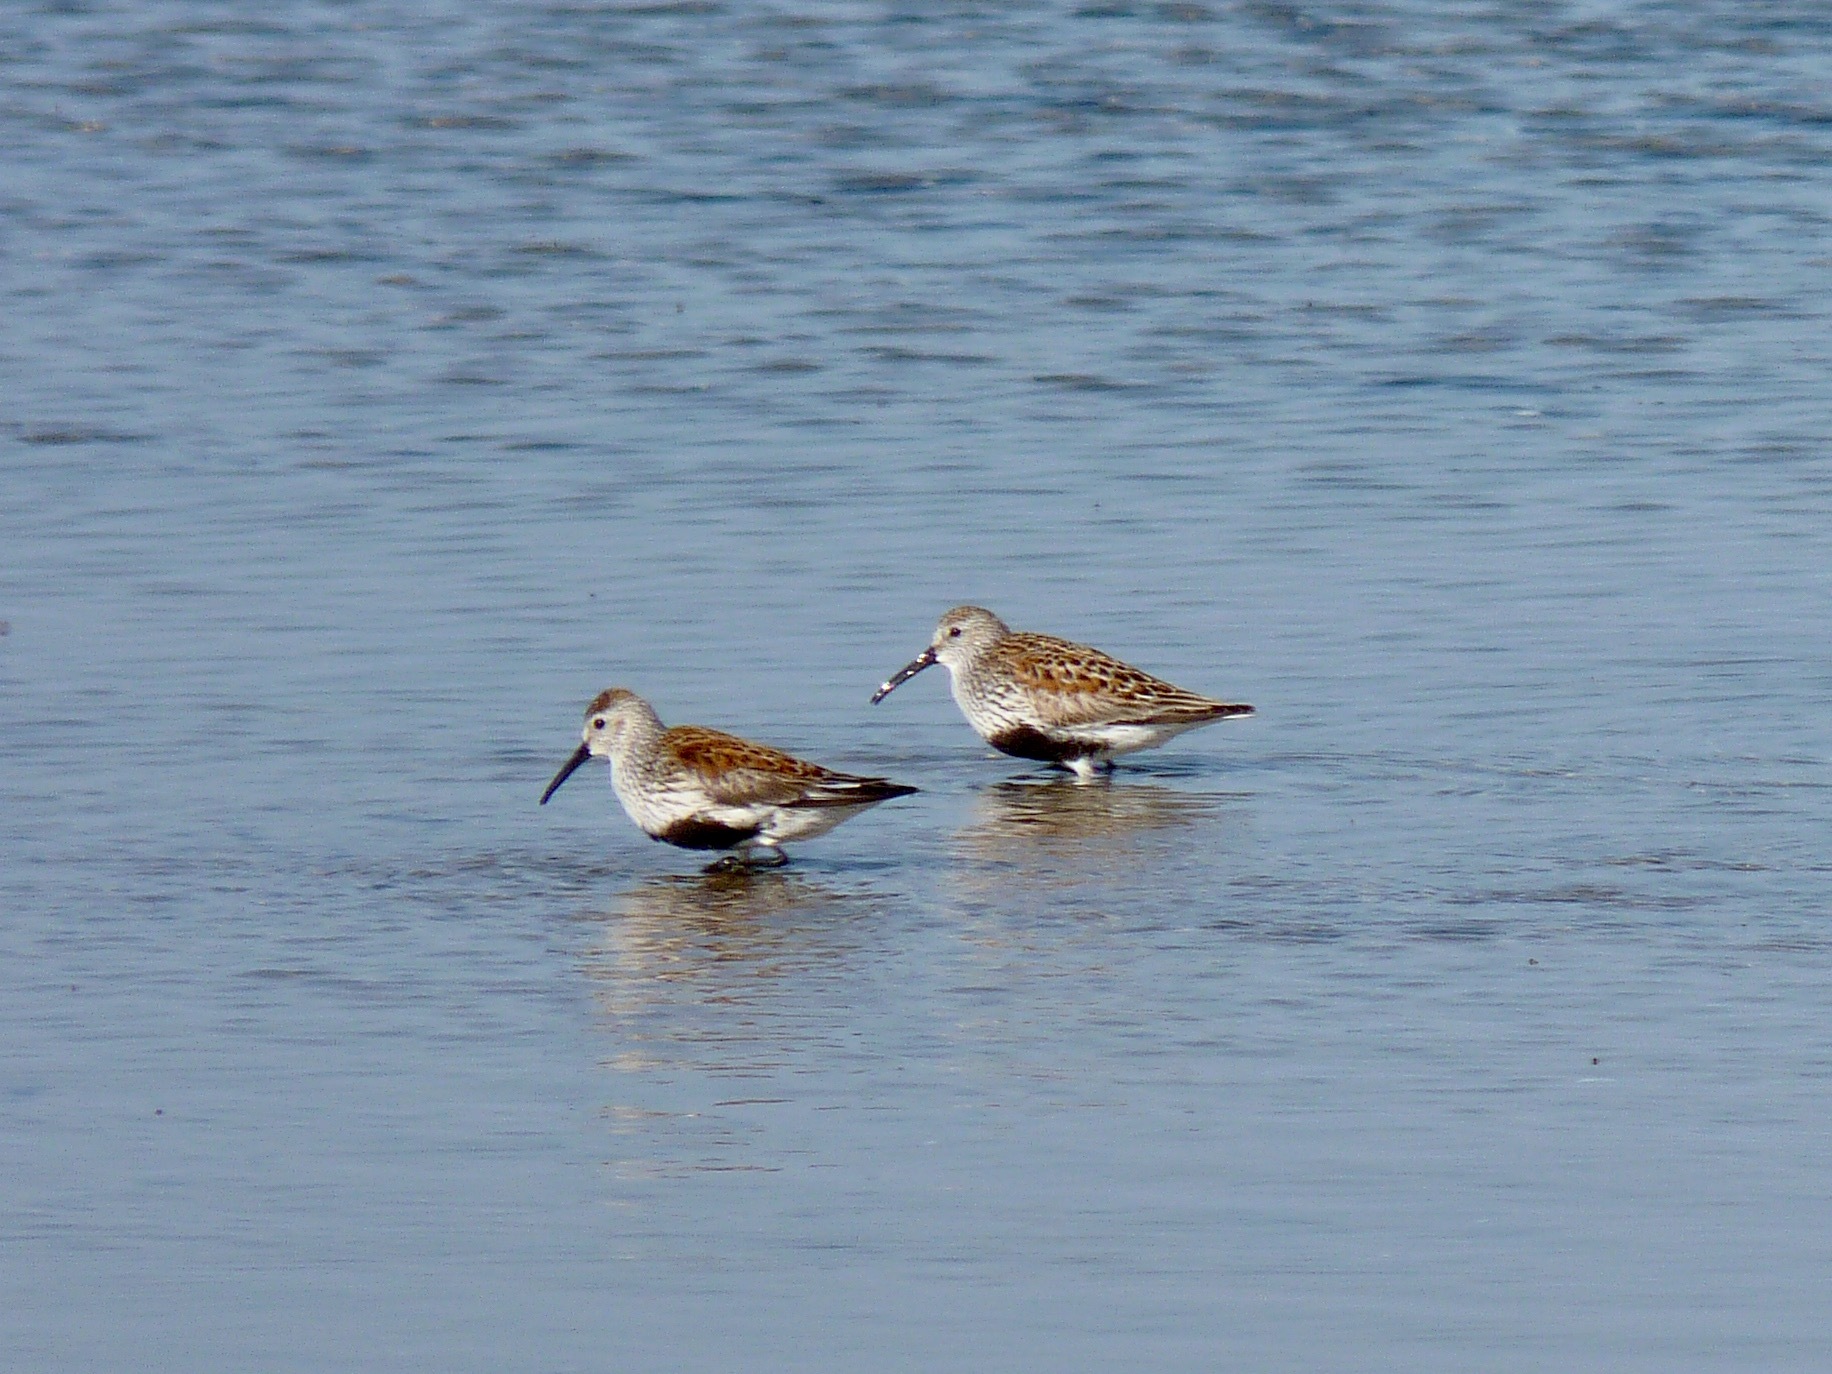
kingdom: Animalia
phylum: Chordata
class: Aves
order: Charadriiformes
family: Scolopacidae
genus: Calidris
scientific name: Calidris alpina
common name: Dunlin
